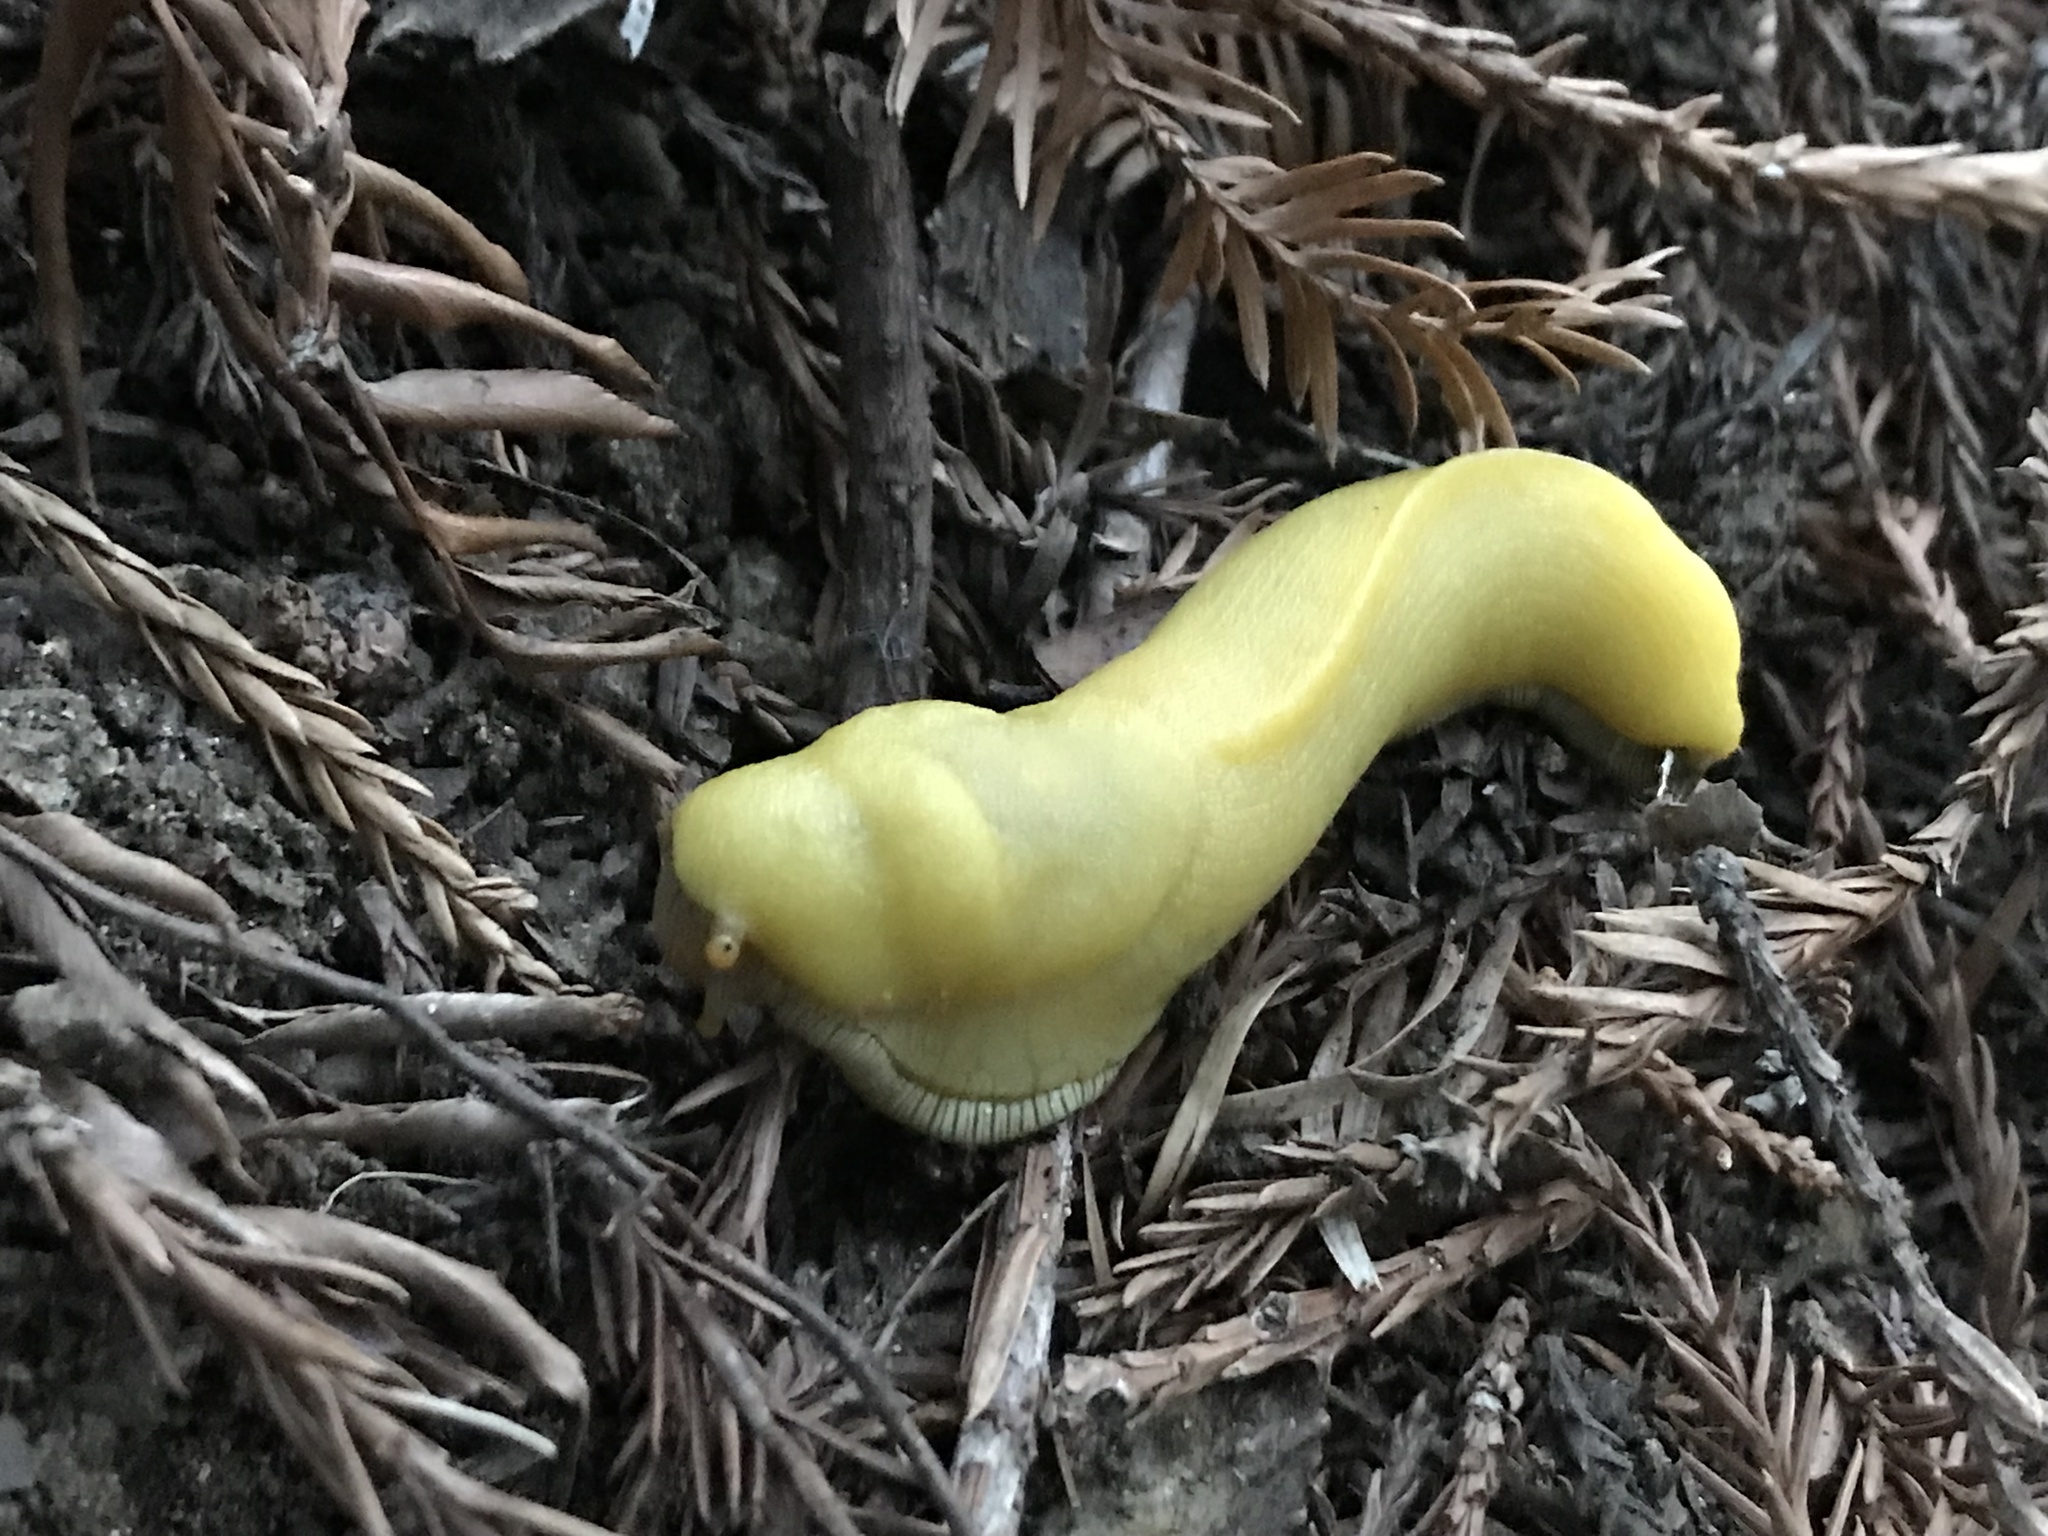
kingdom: Animalia
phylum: Mollusca
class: Gastropoda
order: Stylommatophora
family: Ariolimacidae
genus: Ariolimax
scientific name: Ariolimax stramineus
